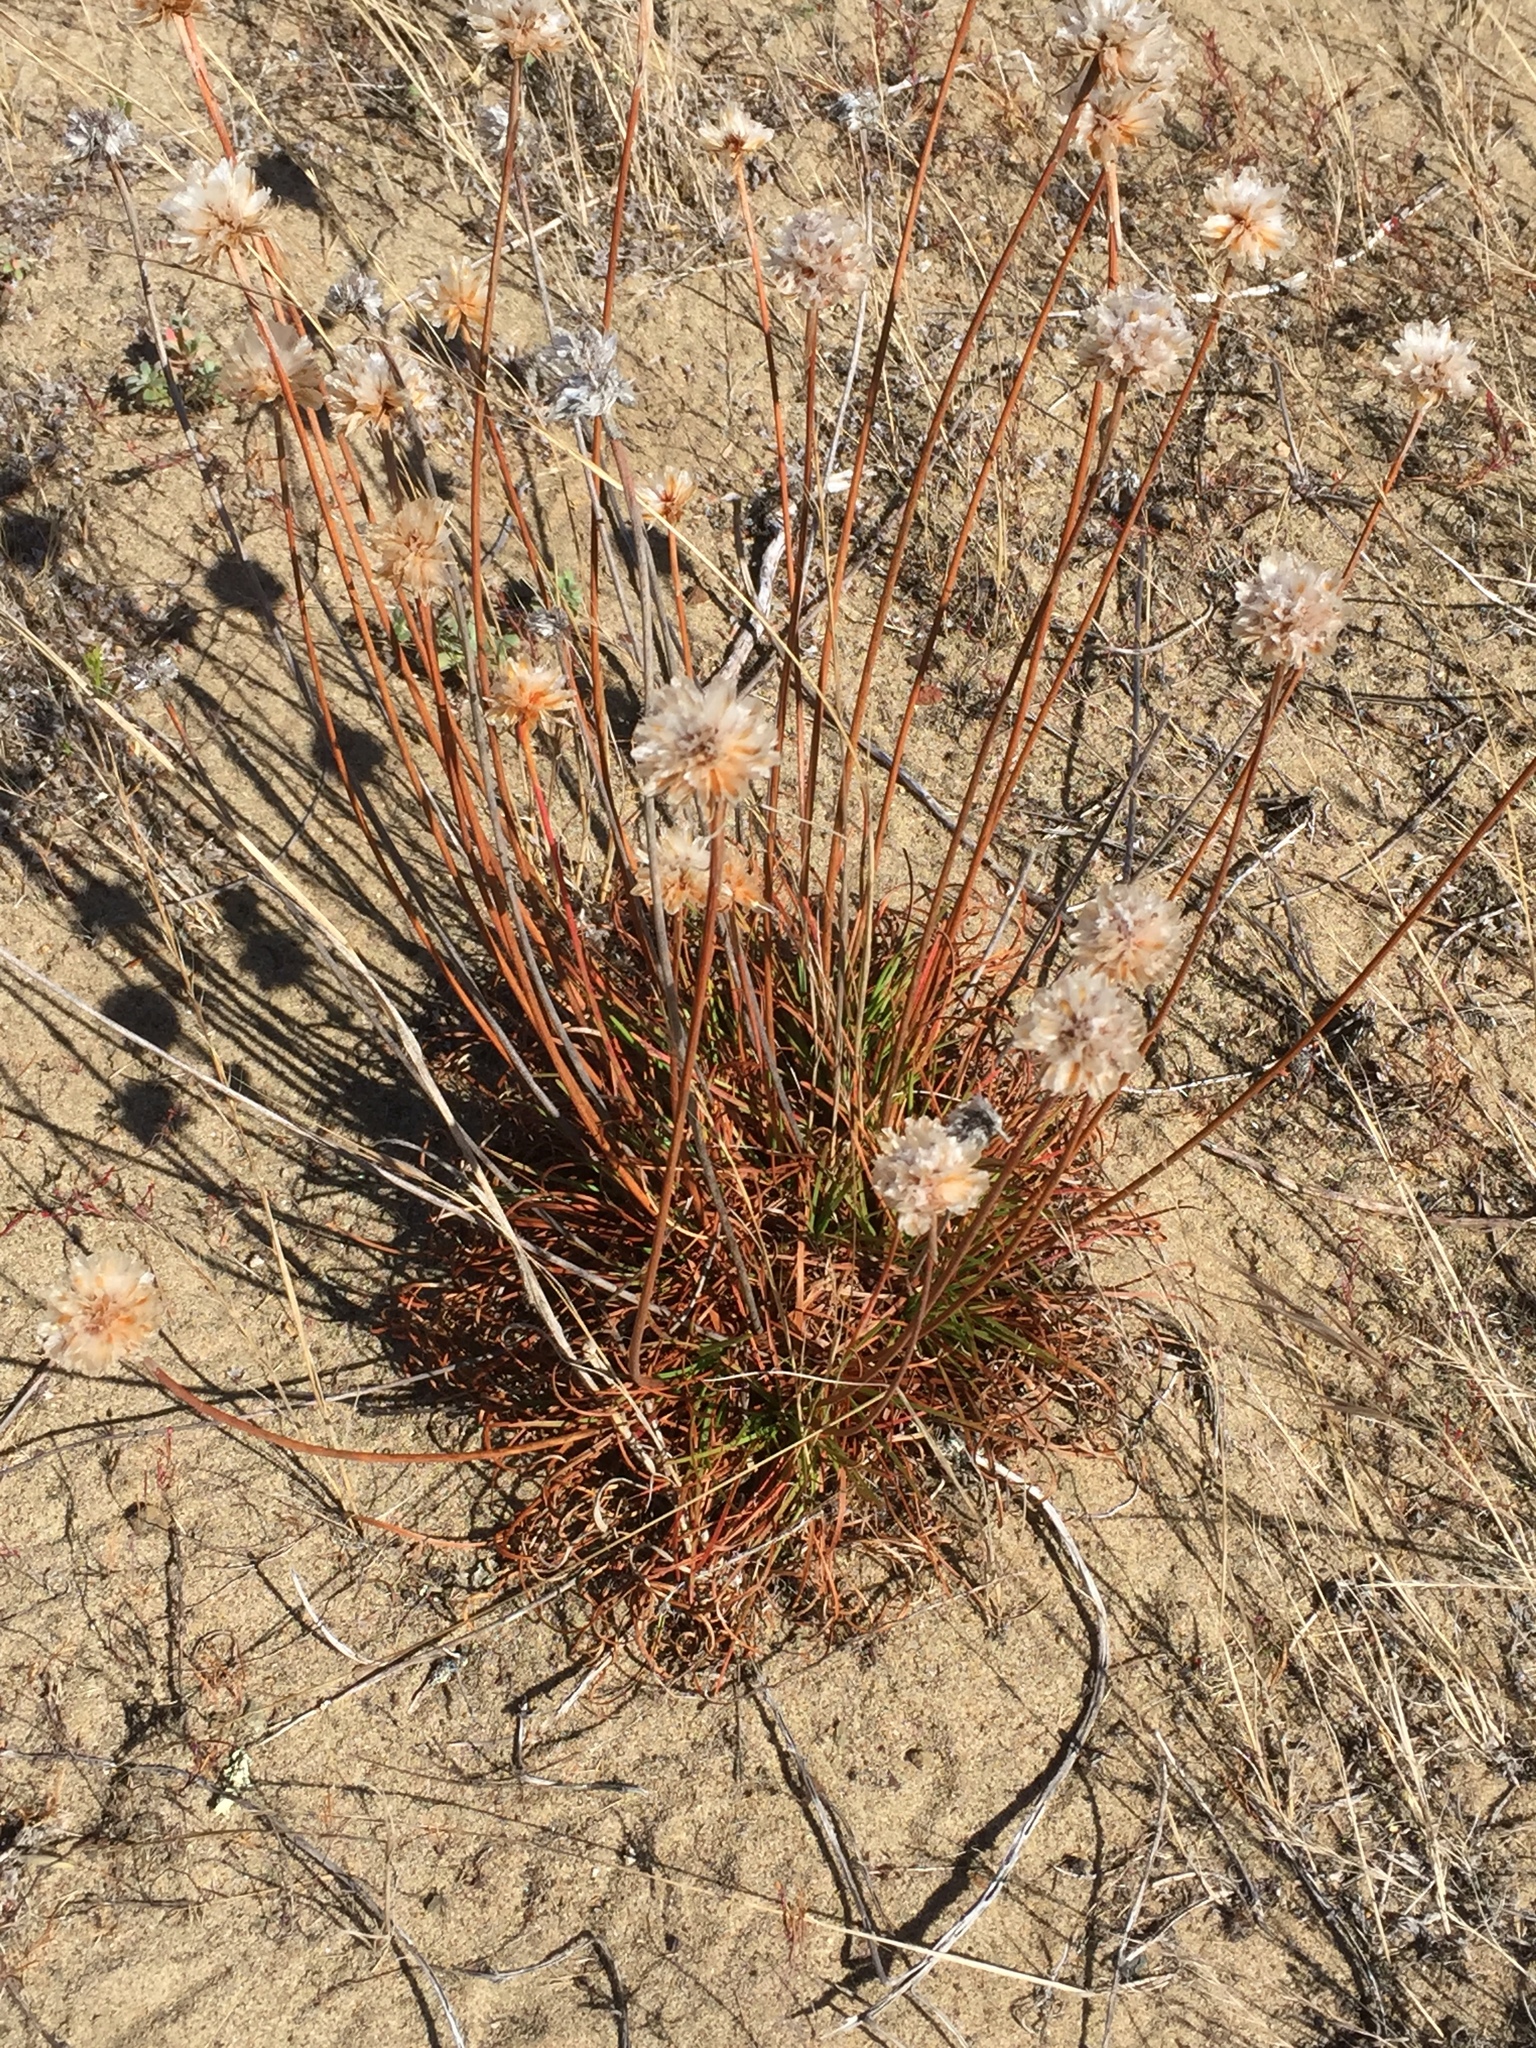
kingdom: Plantae
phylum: Tracheophyta
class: Magnoliopsida
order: Caryophyllales
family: Plumbaginaceae
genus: Armeria
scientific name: Armeria maritima
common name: Thrift
